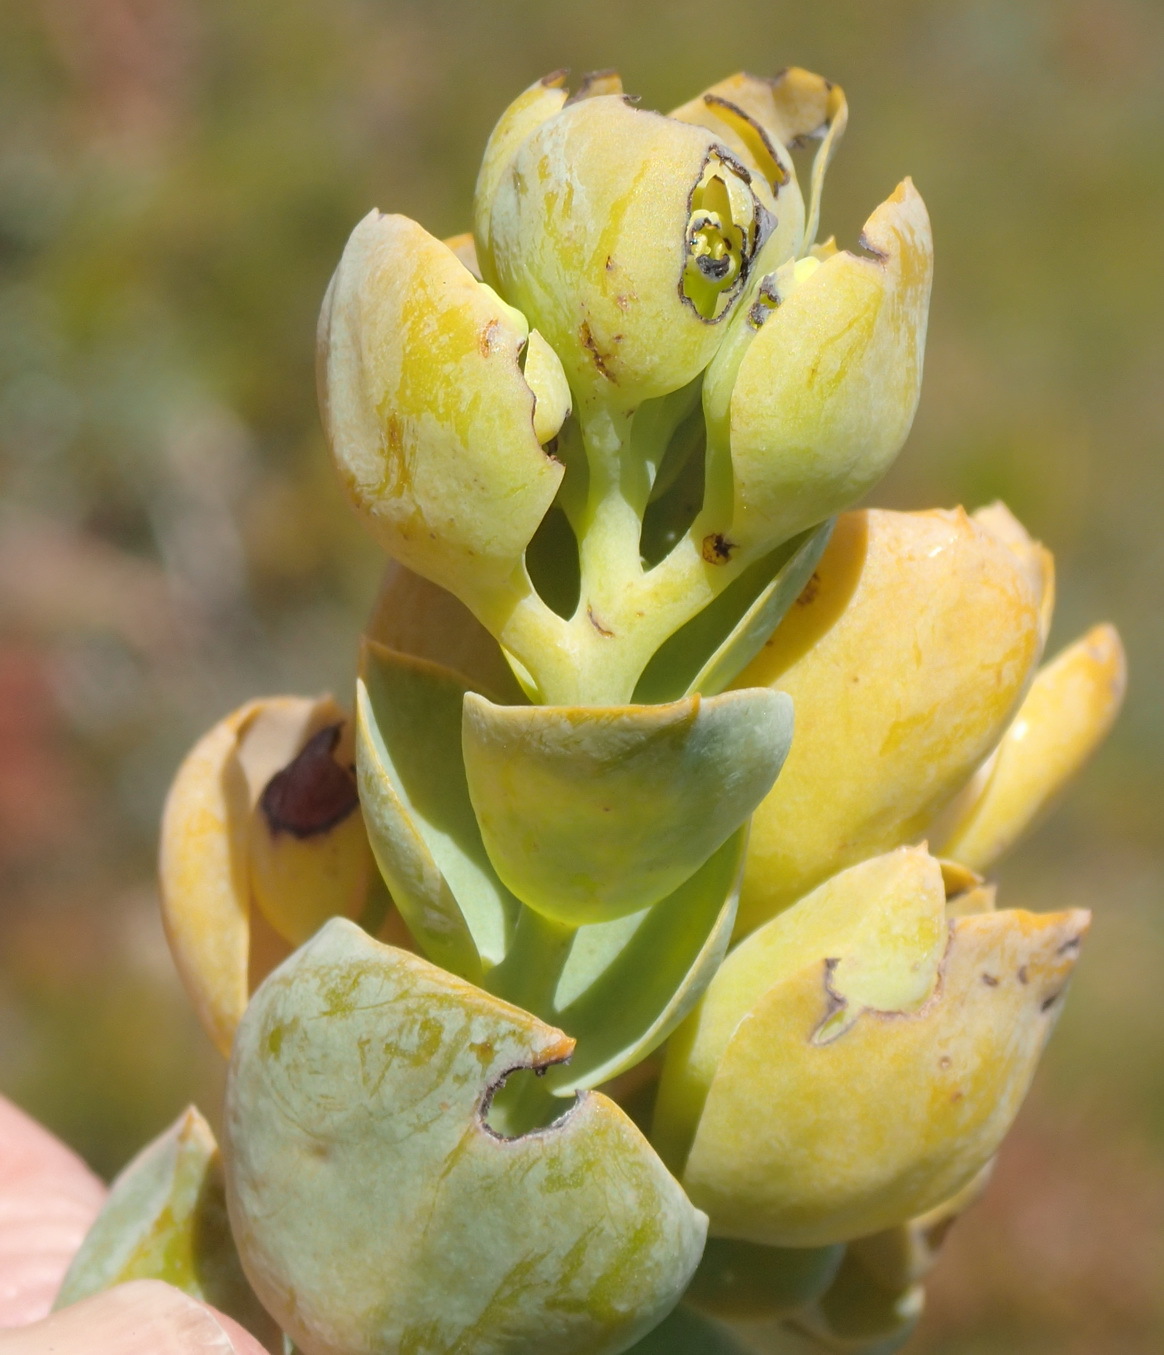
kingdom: Plantae
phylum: Tracheophyta
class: Magnoliopsida
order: Santalales
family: Thesiaceae
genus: Thesium
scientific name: Thesium euphorbioides
